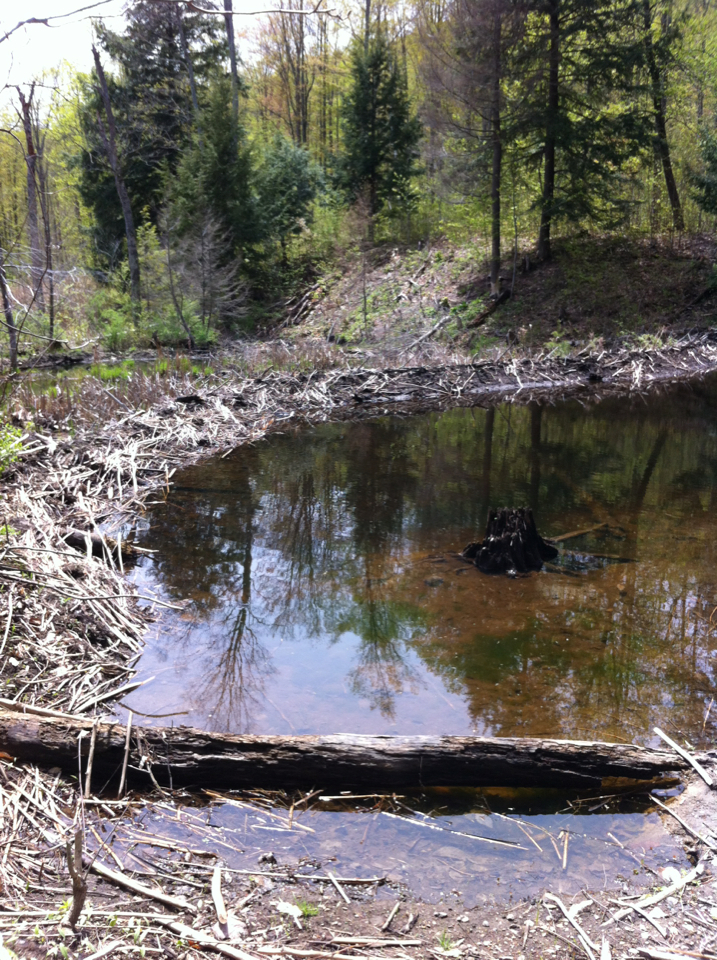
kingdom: Animalia
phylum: Chordata
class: Mammalia
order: Rodentia
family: Castoridae
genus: Castor
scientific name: Castor canadensis
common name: American beaver
